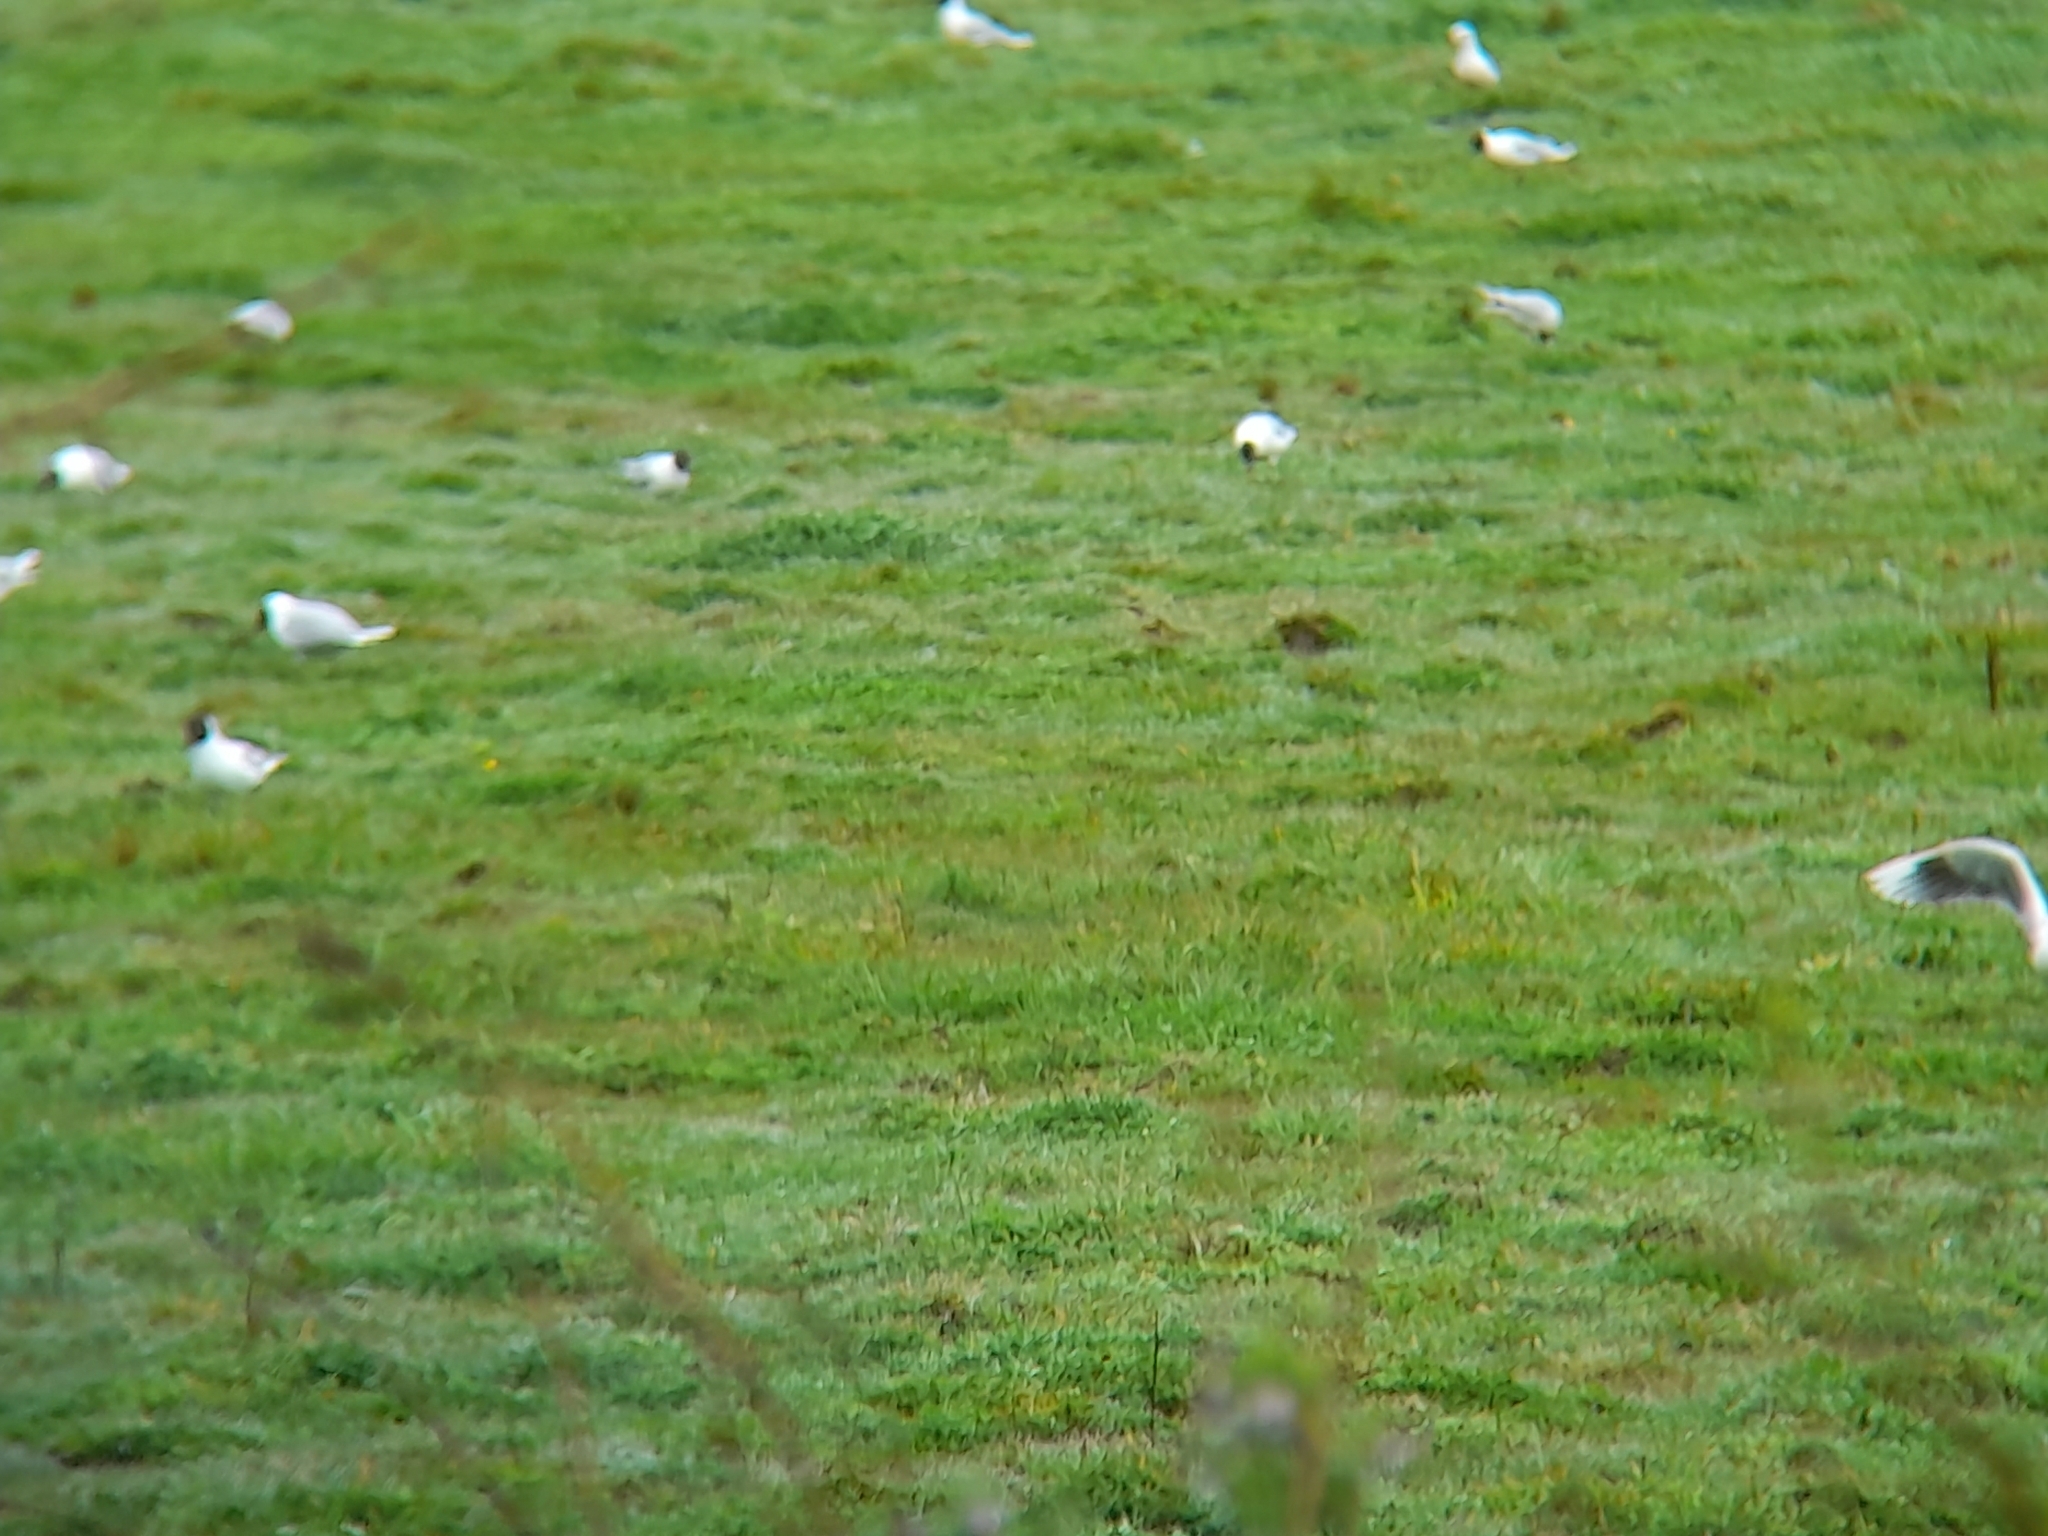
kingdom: Animalia
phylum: Chordata
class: Aves
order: Charadriiformes
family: Laridae
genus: Chroicocephalus
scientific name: Chroicocephalus maculipennis
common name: Brown-hooded gull
